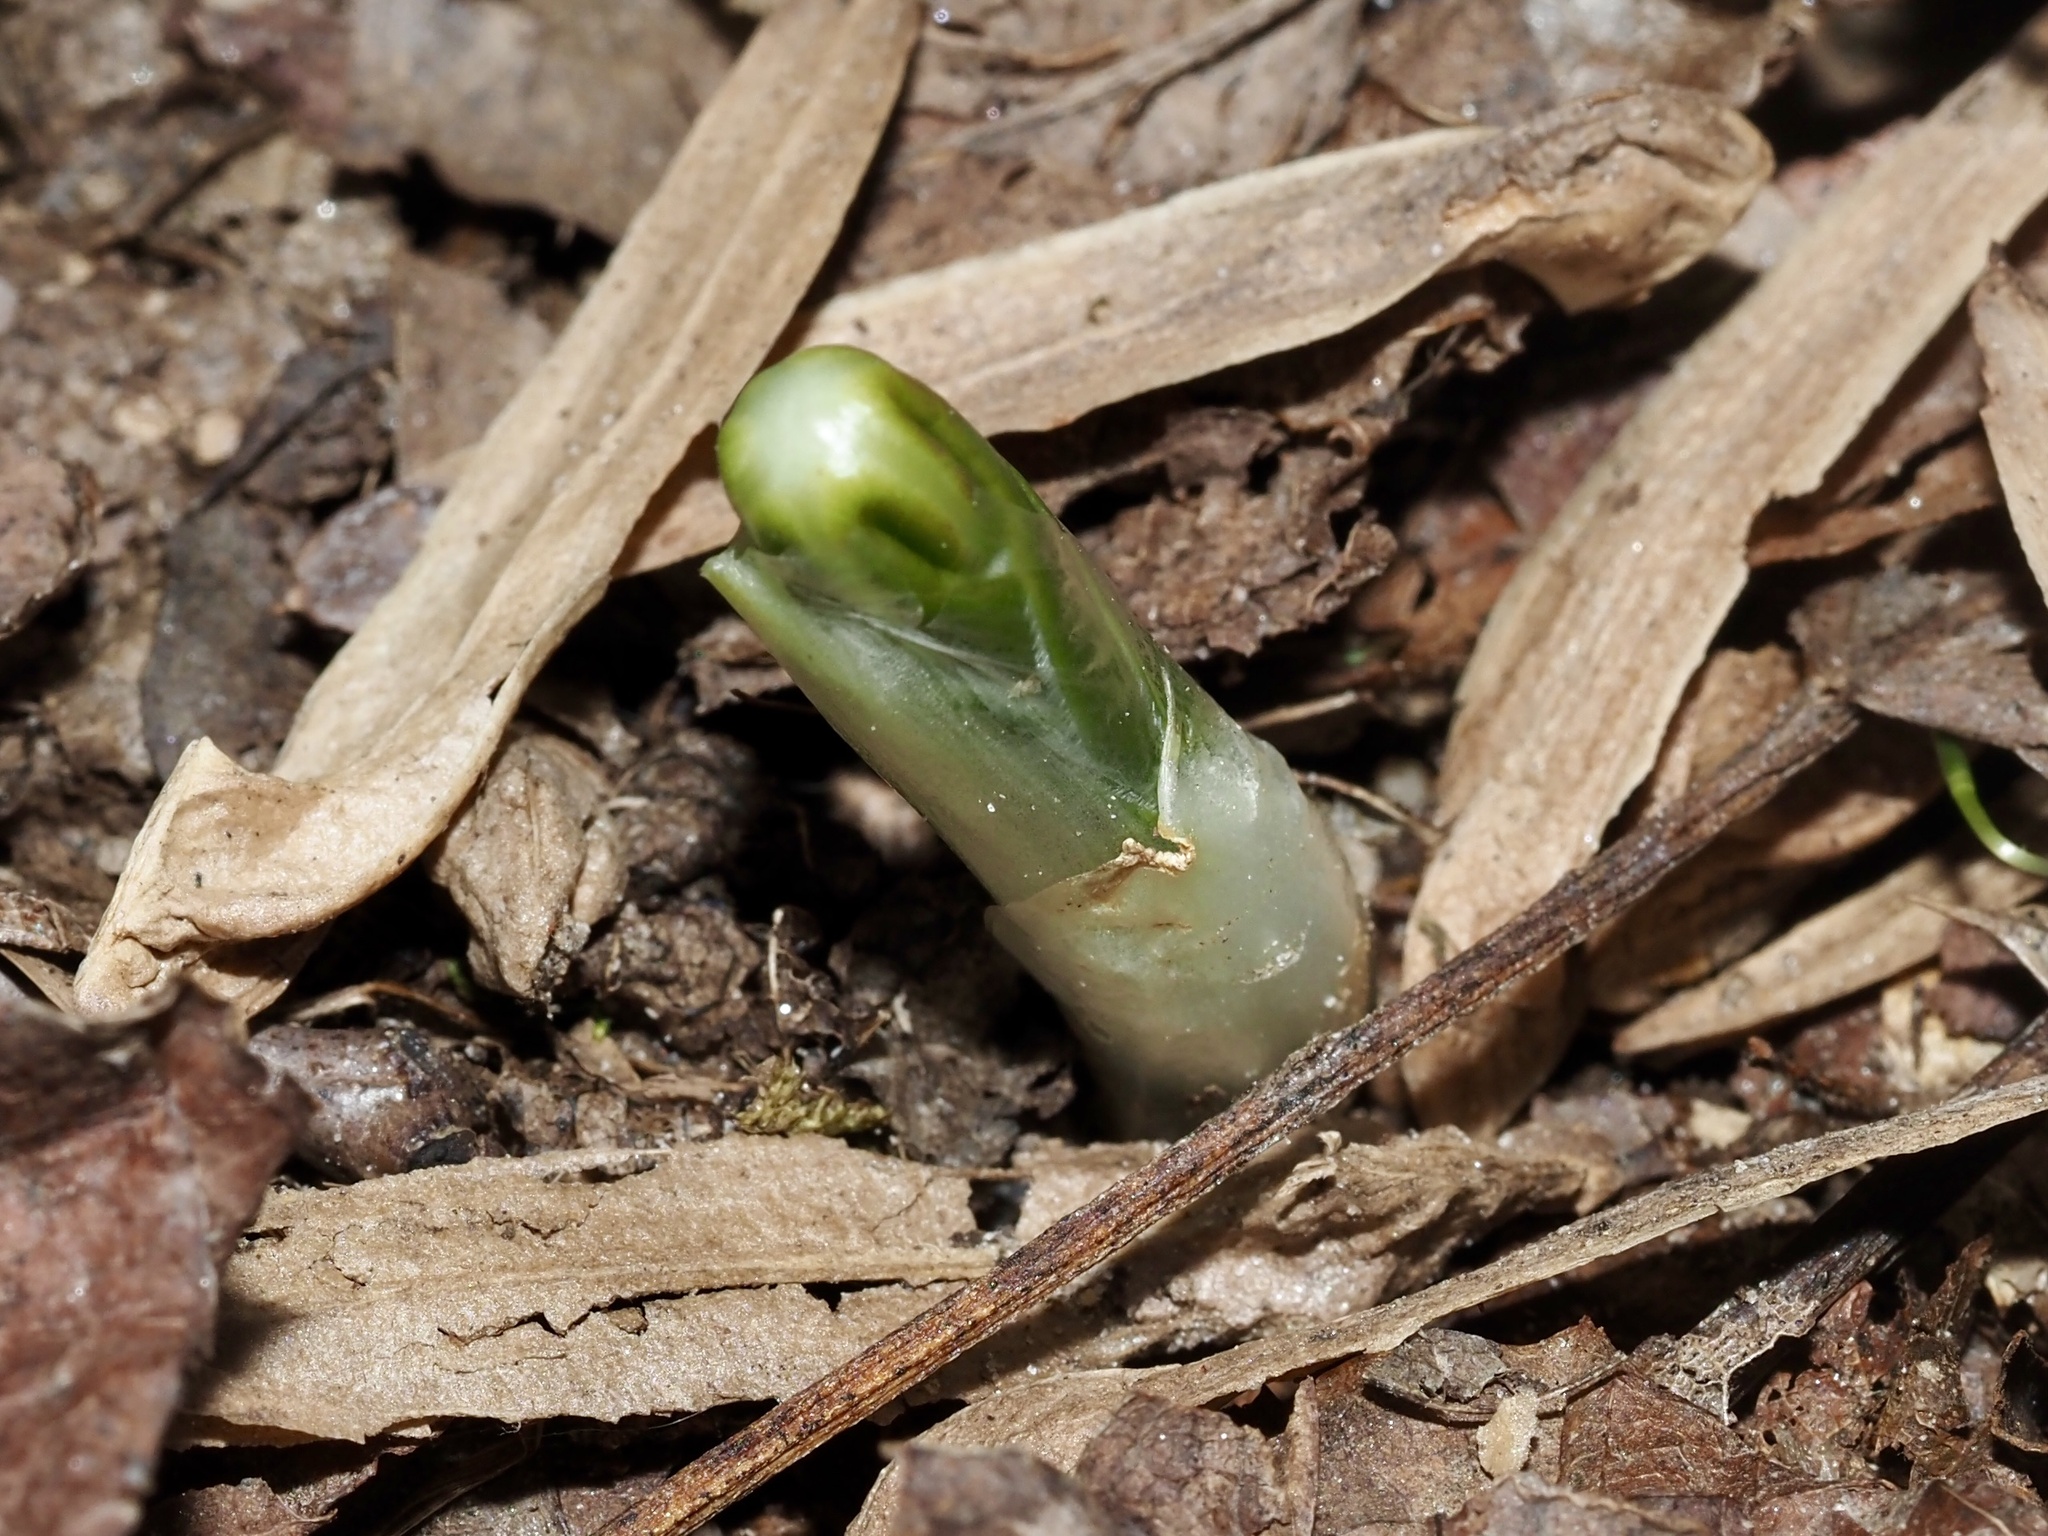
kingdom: Plantae
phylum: Tracheophyta
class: Magnoliopsida
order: Ranunculales
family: Berberidaceae
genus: Podophyllum
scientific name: Podophyllum peltatum
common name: Wild mandrake
